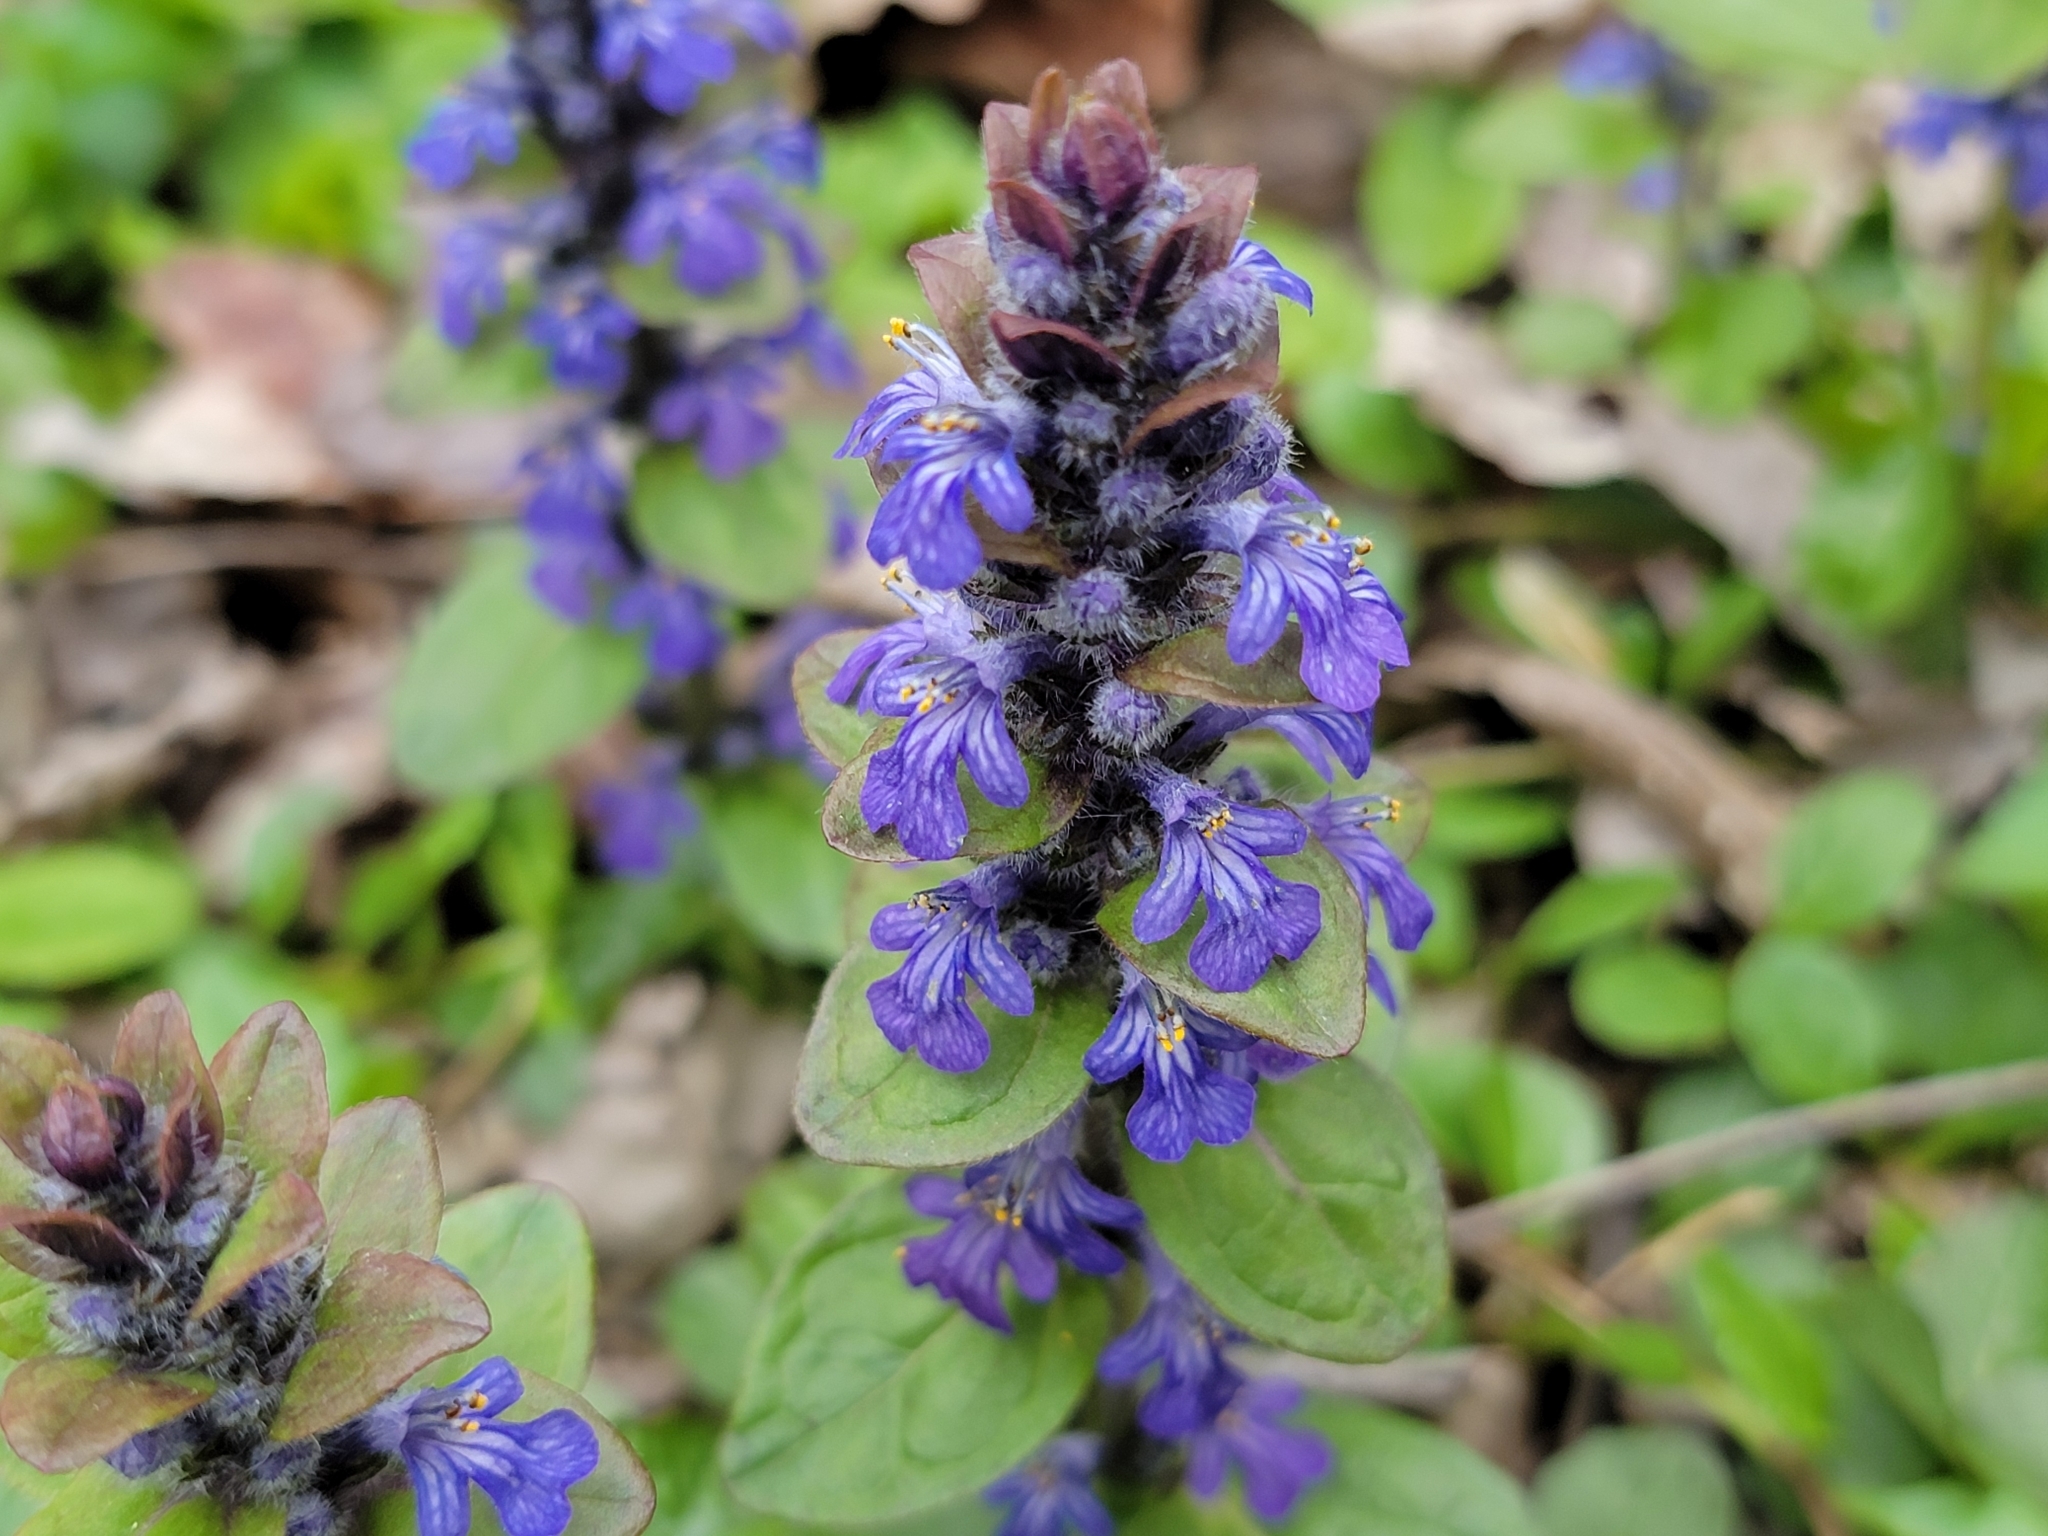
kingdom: Plantae
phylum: Tracheophyta
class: Magnoliopsida
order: Lamiales
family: Lamiaceae
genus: Ajuga
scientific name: Ajuga reptans
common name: Bugle
